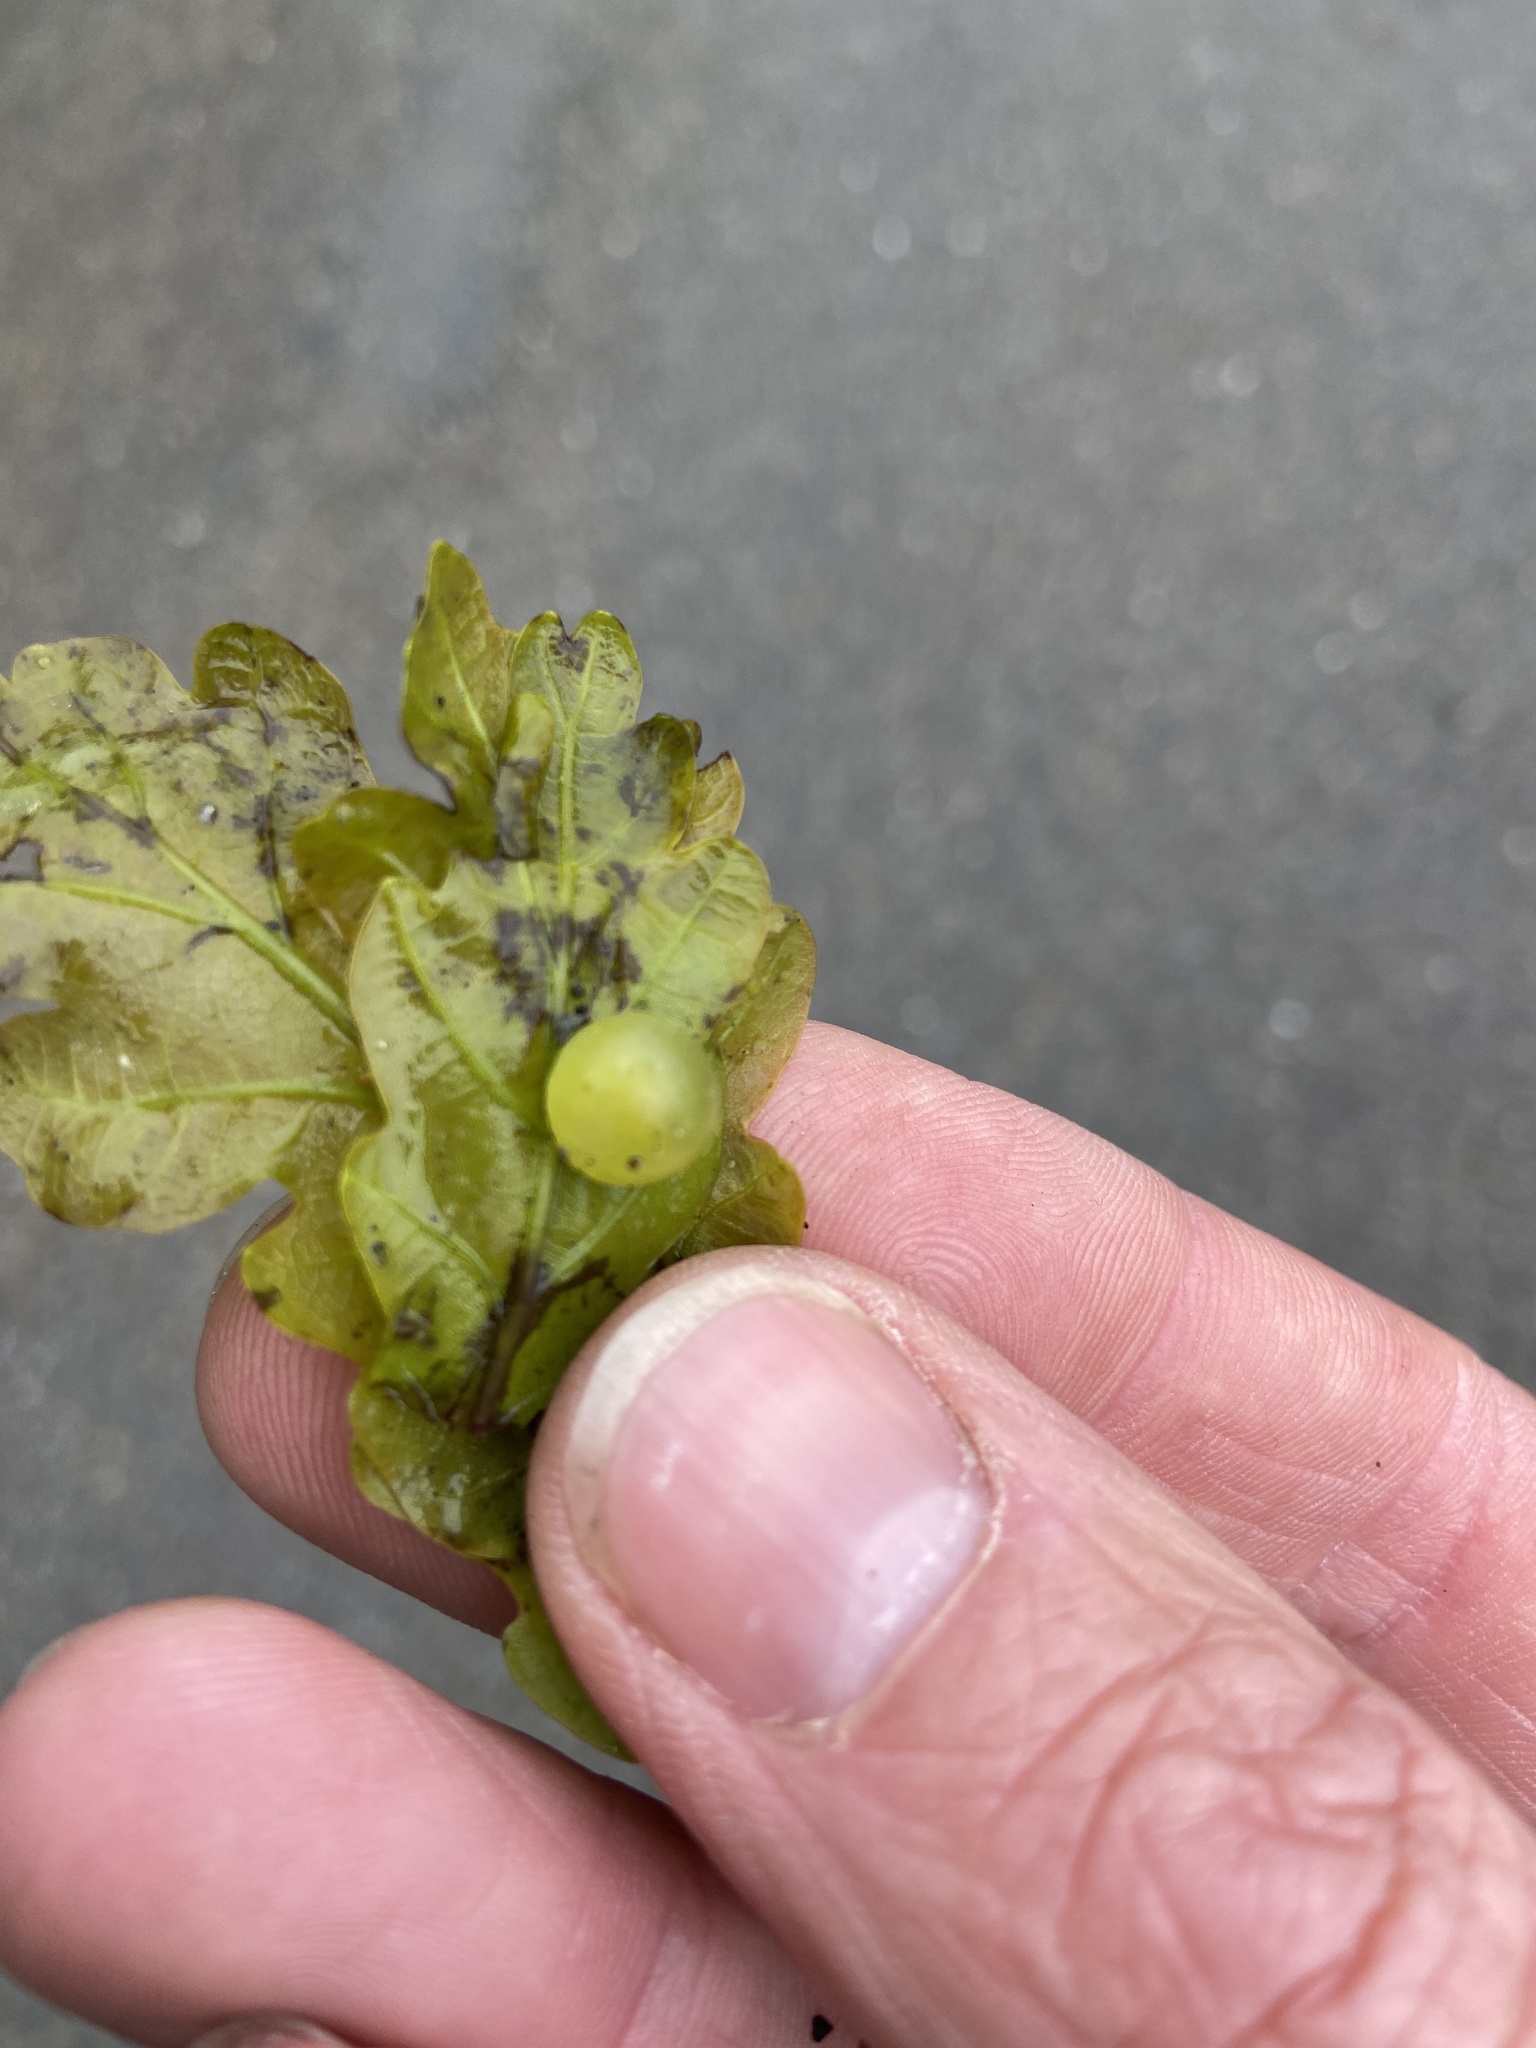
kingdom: Animalia
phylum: Arthropoda
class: Insecta
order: Hymenoptera
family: Cynipidae
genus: Neuroterus
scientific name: Neuroterus quercusbaccarum
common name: Common spangle gall
